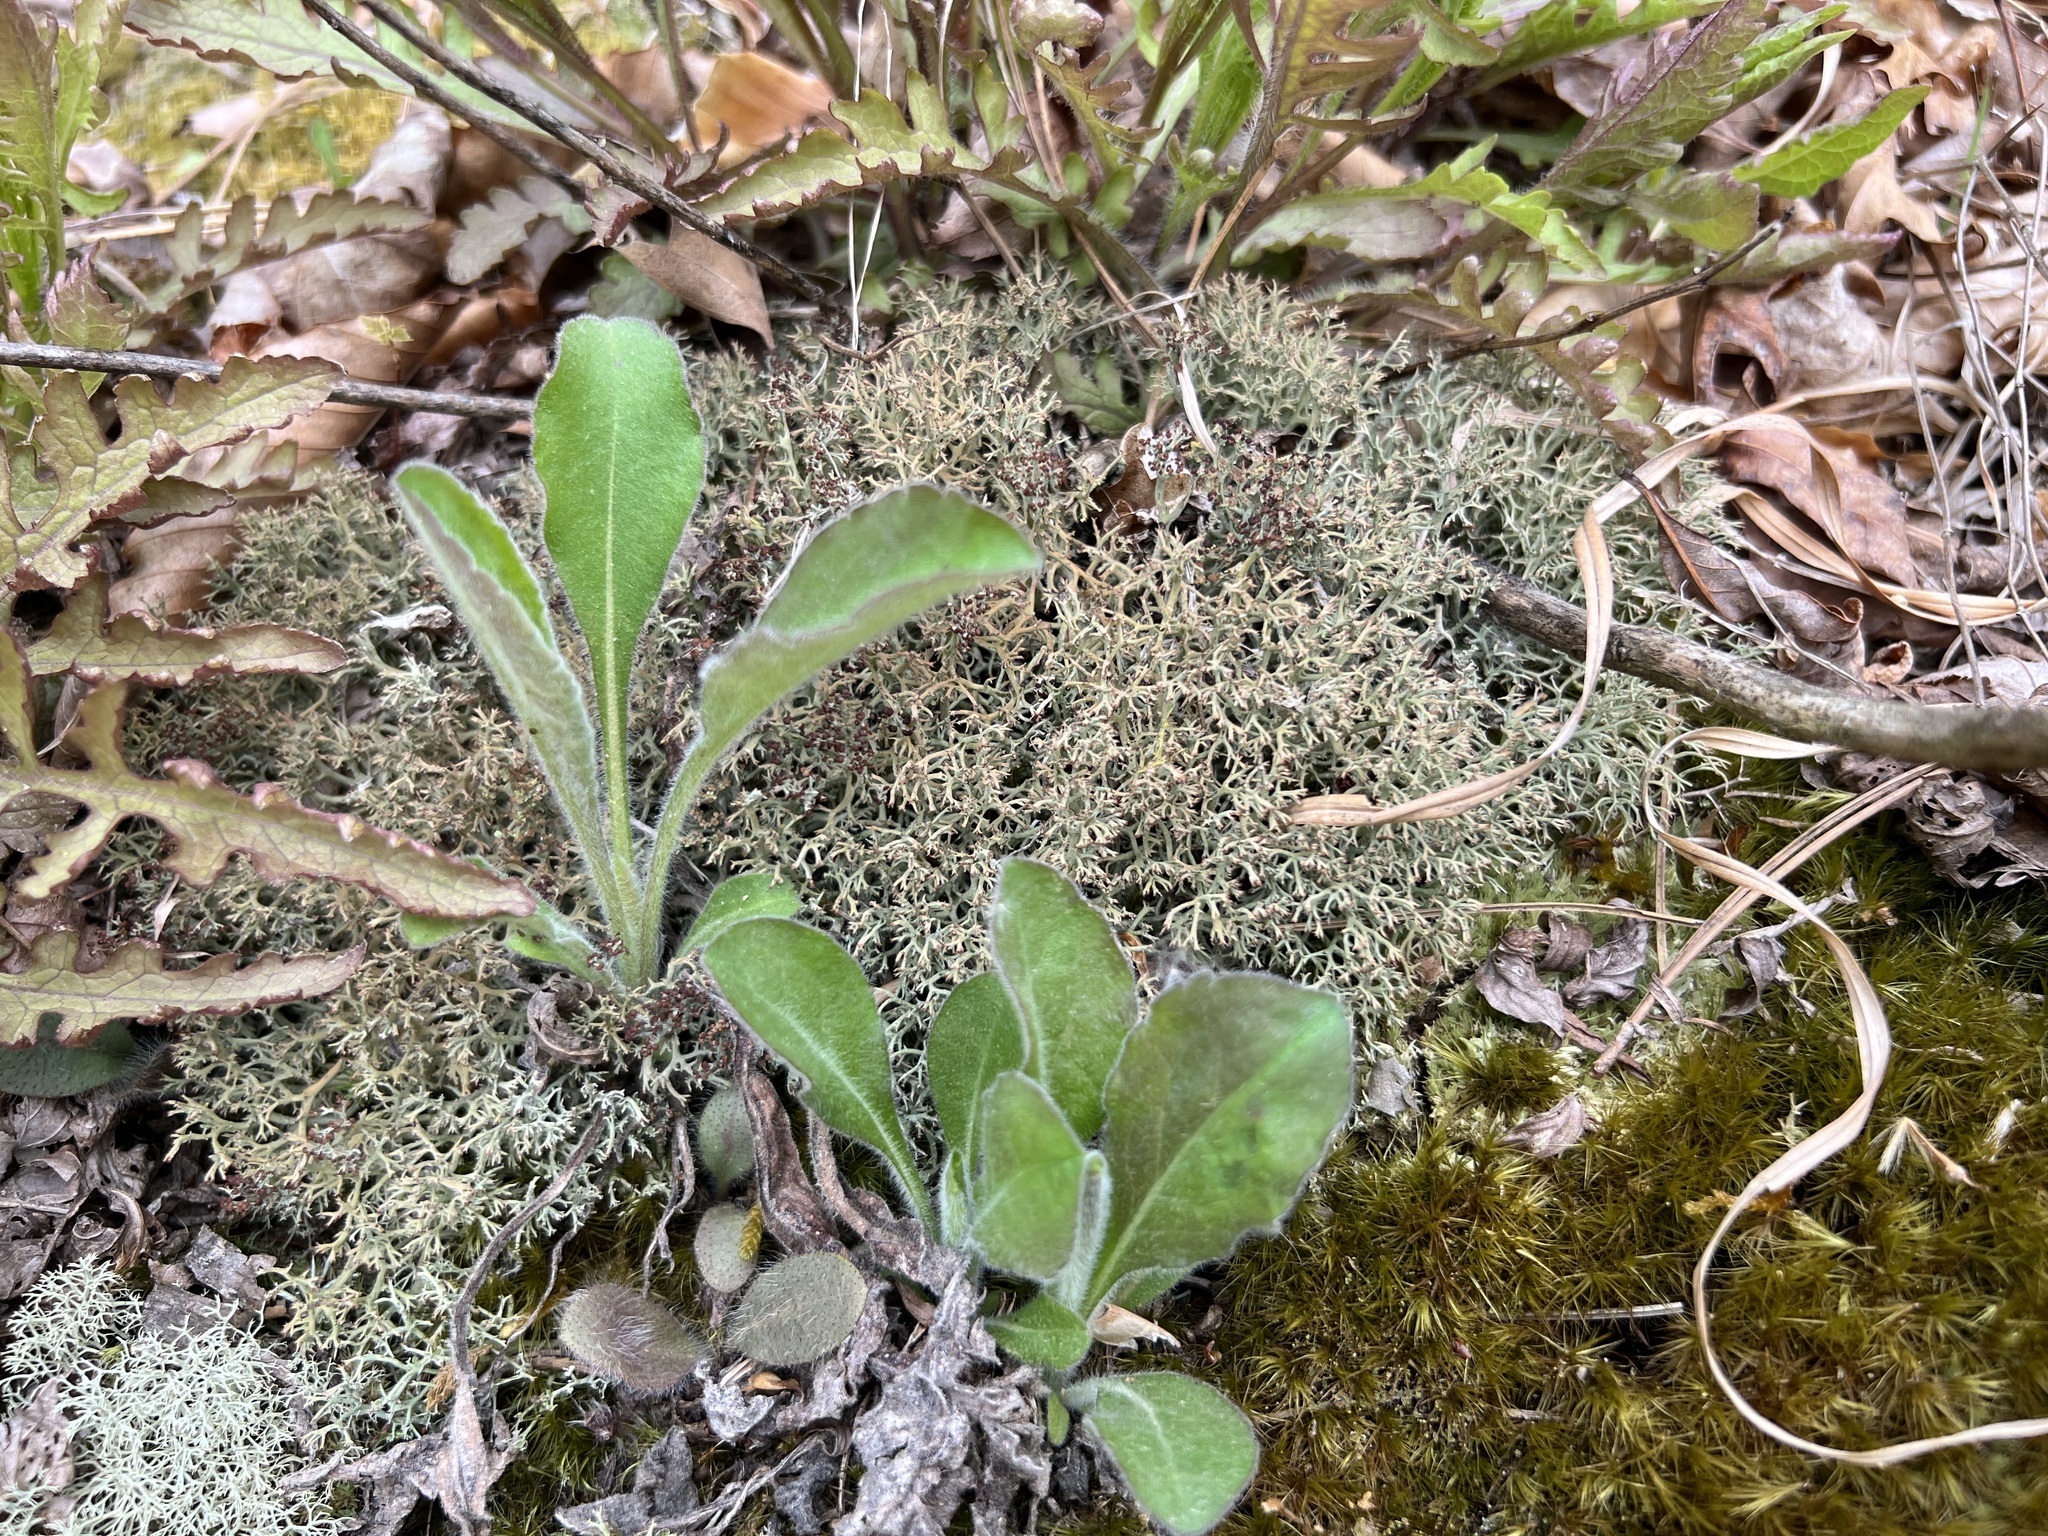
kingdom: Fungi
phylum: Ascomycota
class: Lecanoromycetes
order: Lecanorales
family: Cladoniaceae
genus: Cladonia
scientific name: Cladonia furcata
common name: Many-forked cladonia
